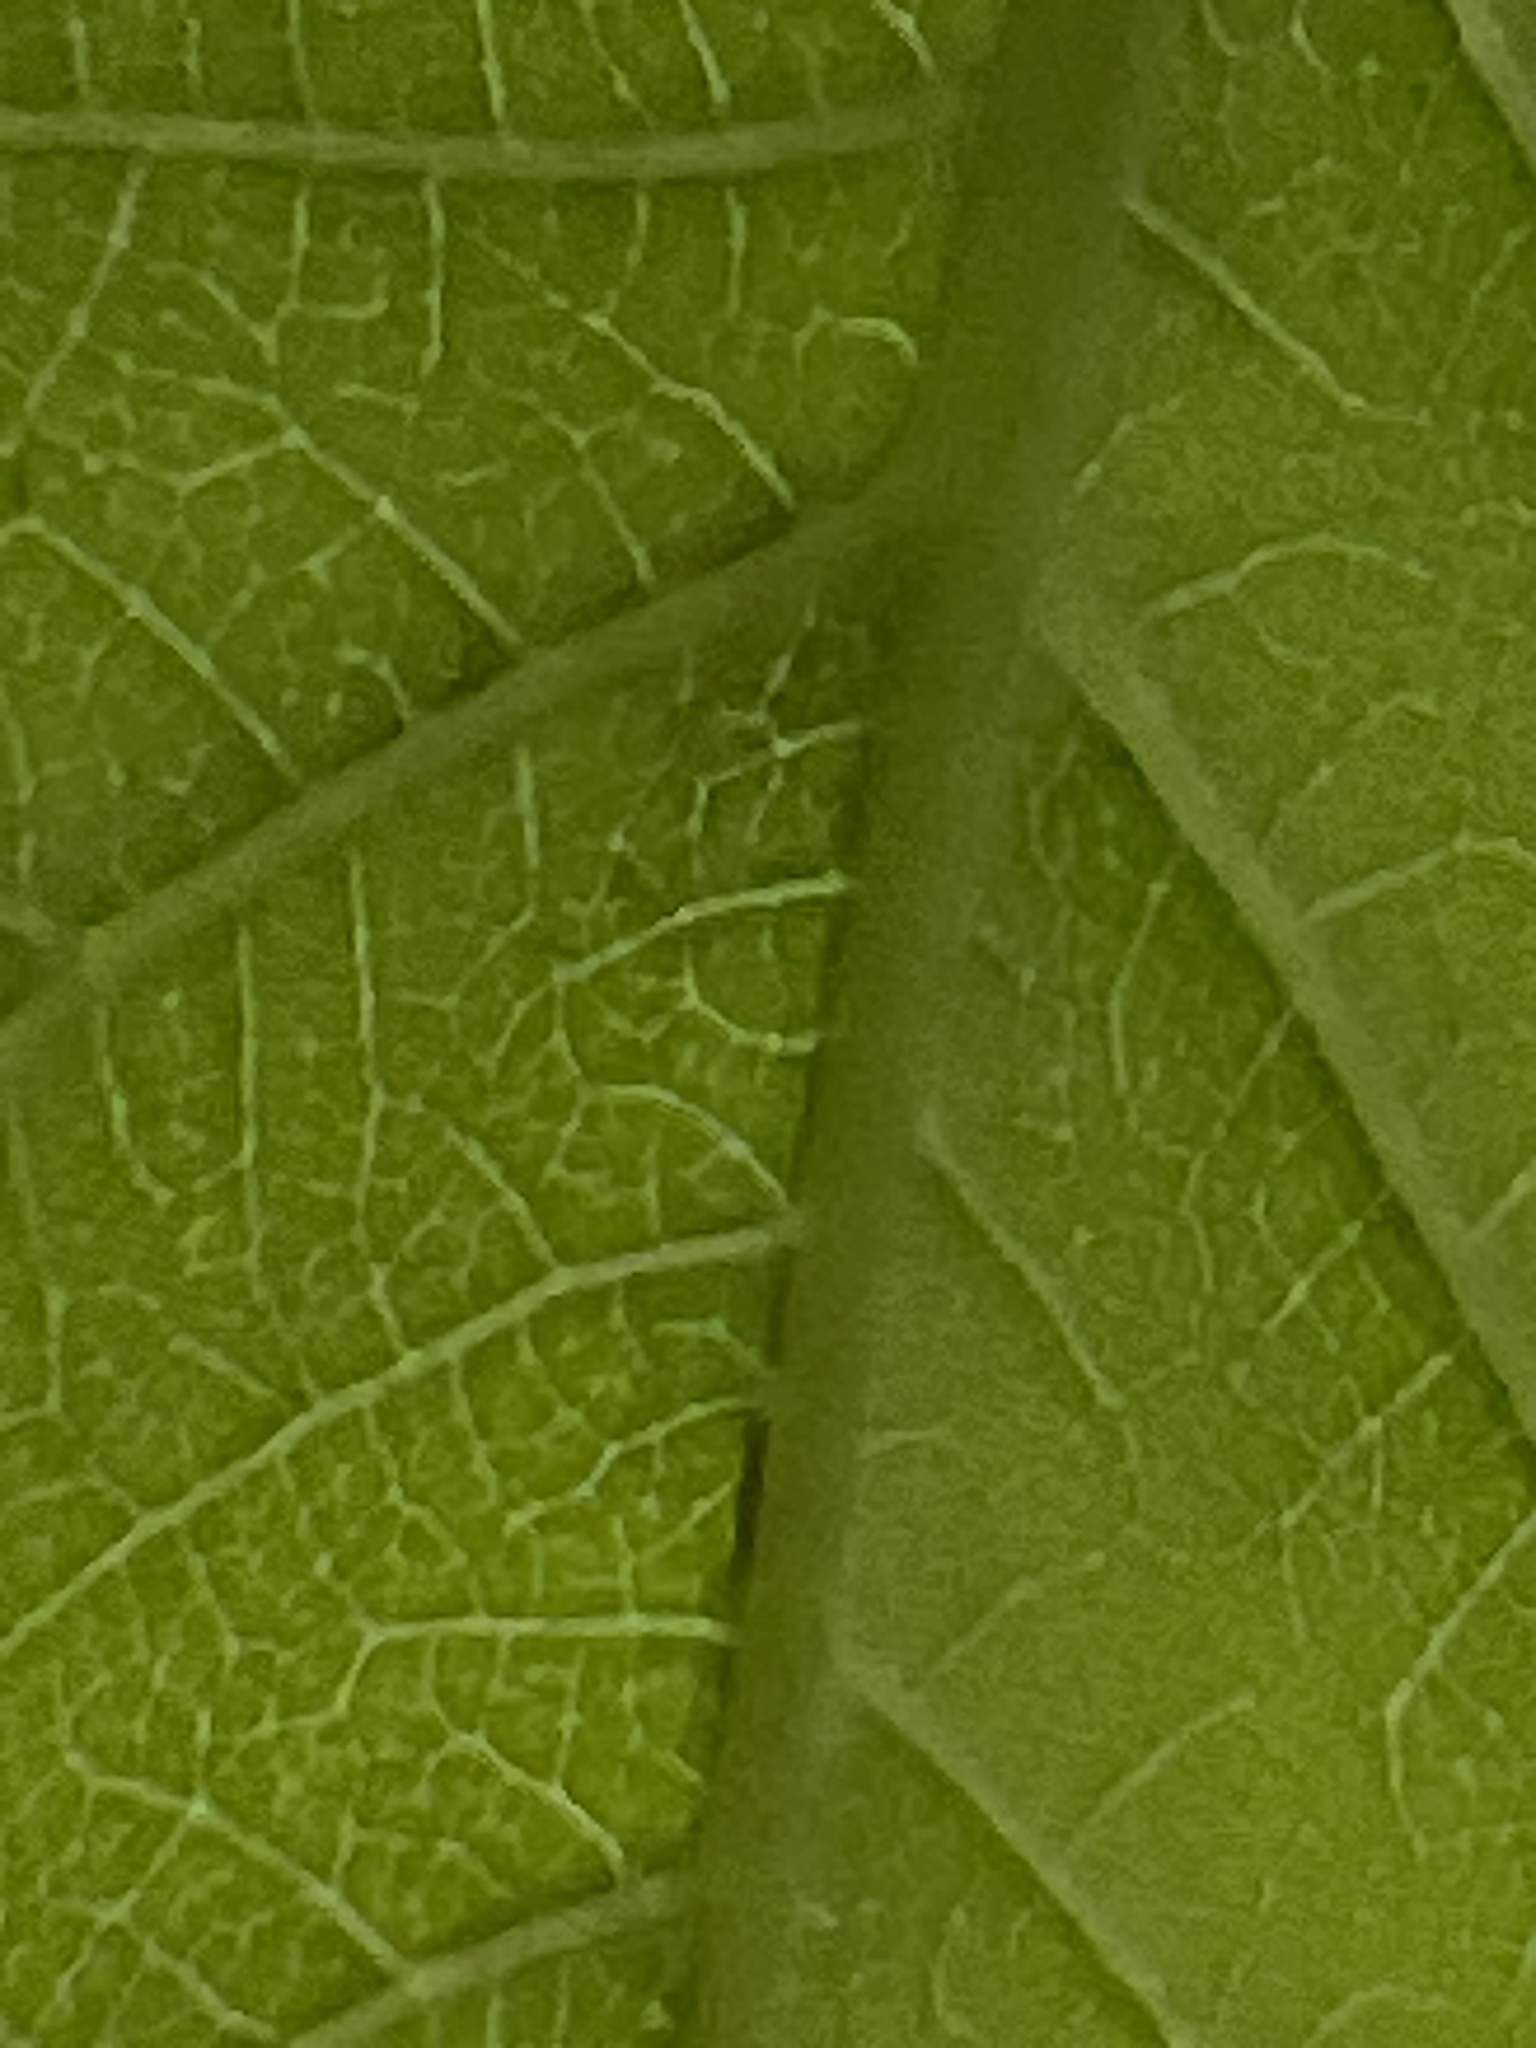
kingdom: Plantae
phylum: Tracheophyta
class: Magnoliopsida
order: Sapindales
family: Anacardiaceae
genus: Toxicodendron
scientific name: Toxicodendron radicans
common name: Poison ivy
